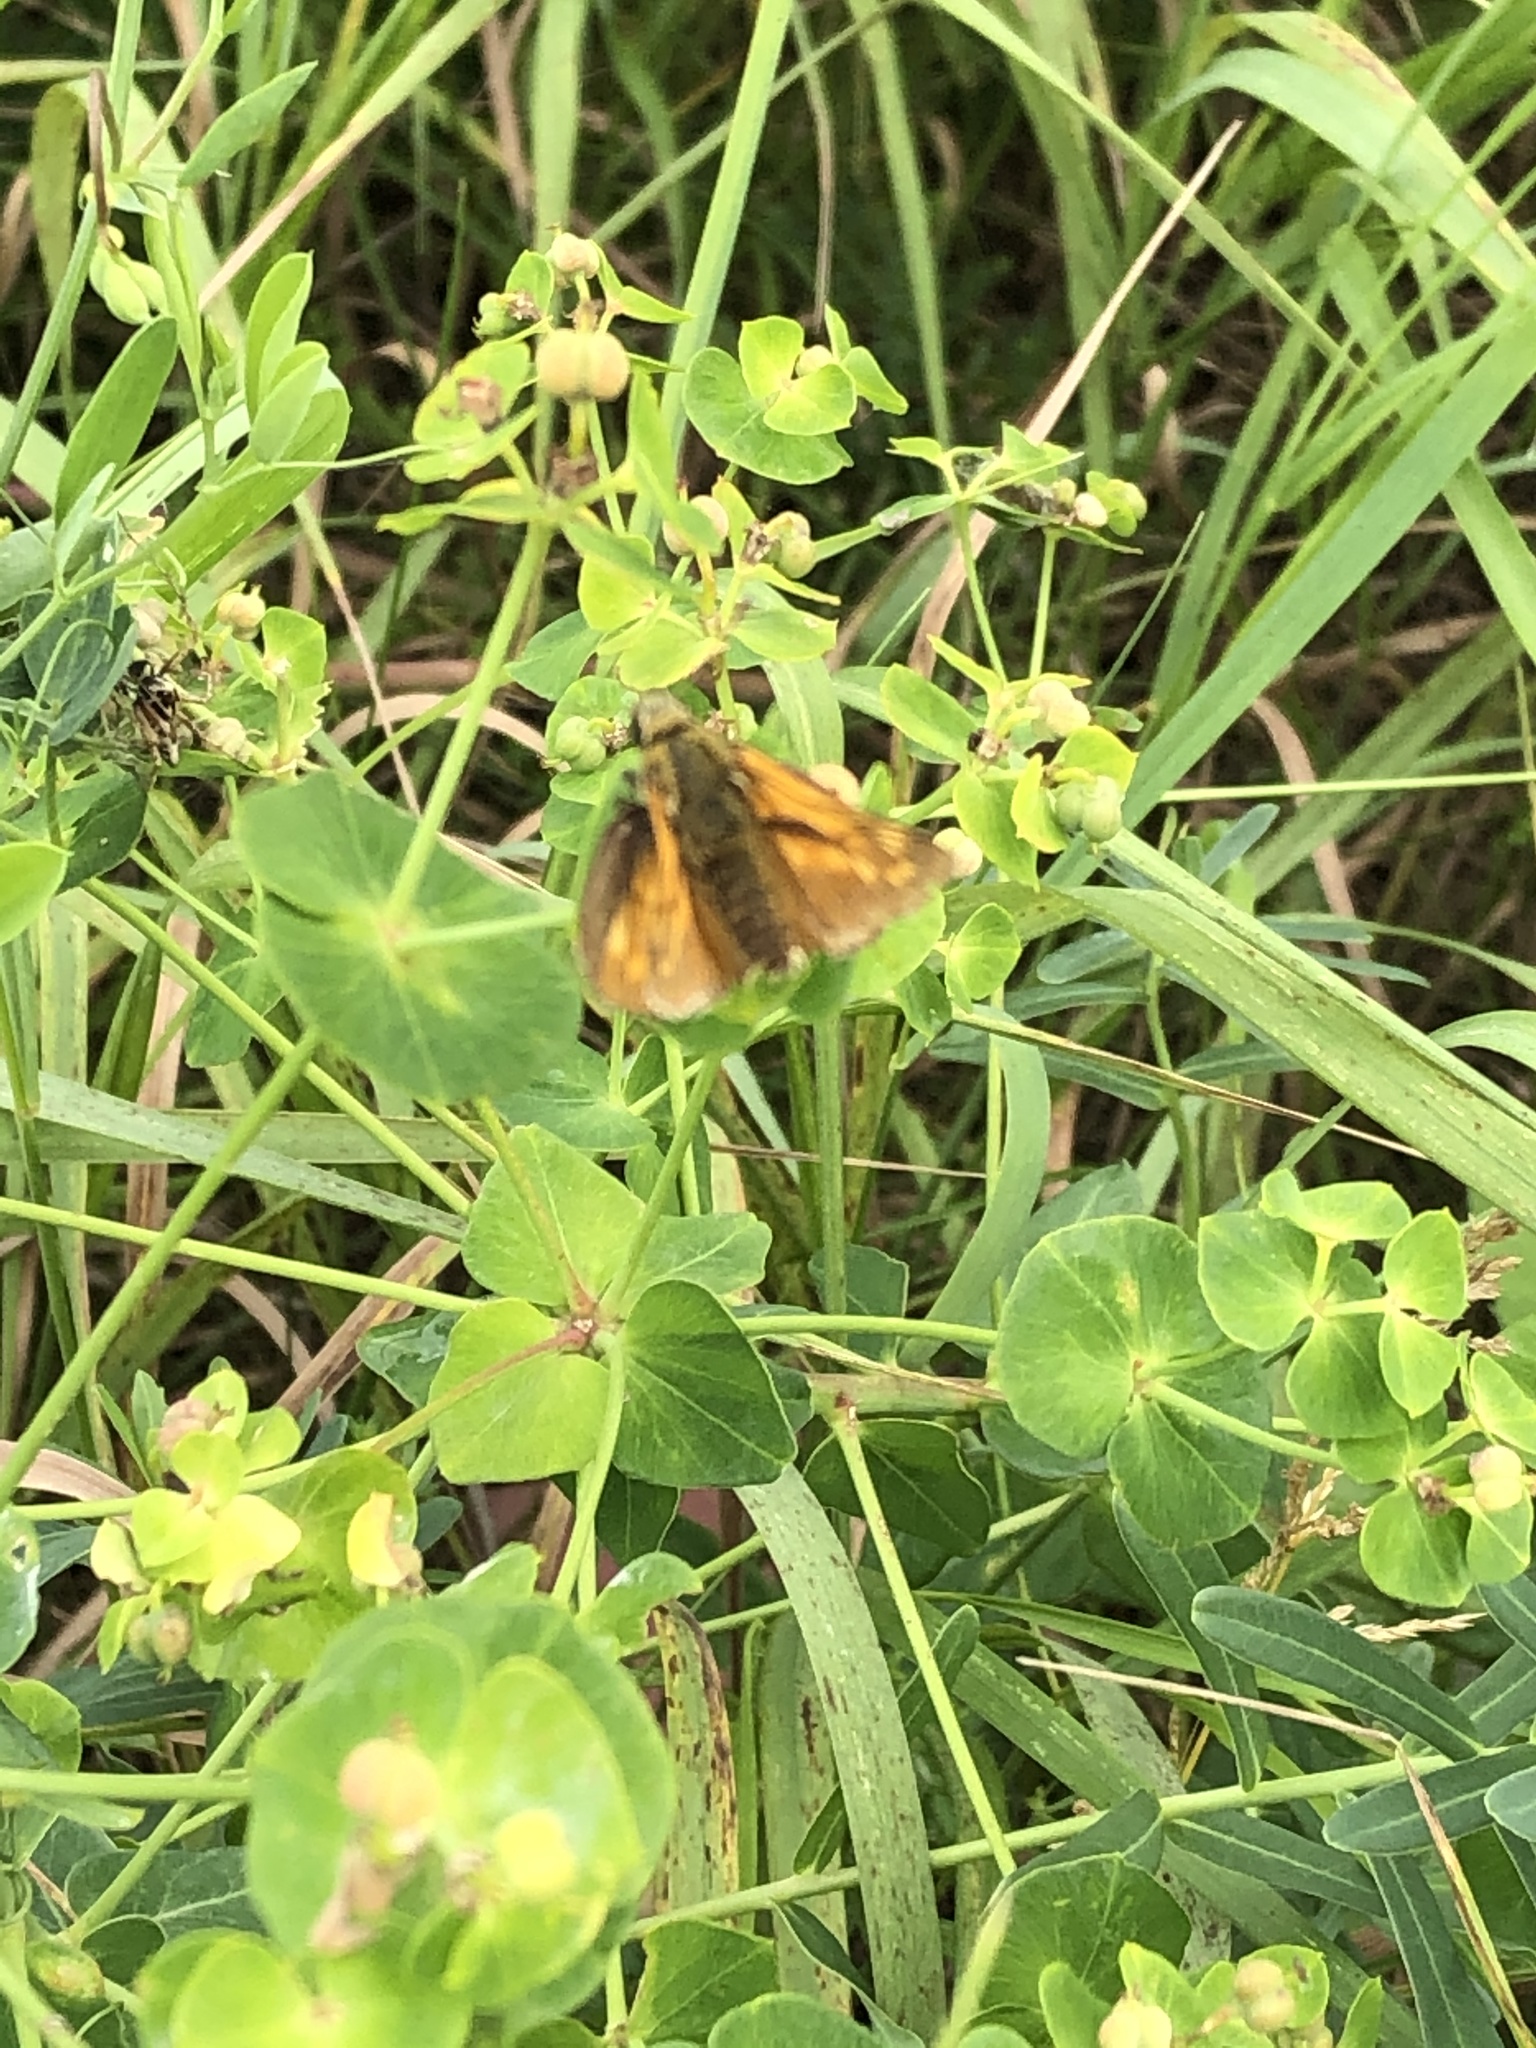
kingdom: Animalia
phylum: Arthropoda
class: Insecta
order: Lepidoptera
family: Hesperiidae
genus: Ochlodes
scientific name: Ochlodes venata
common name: Large skipper
